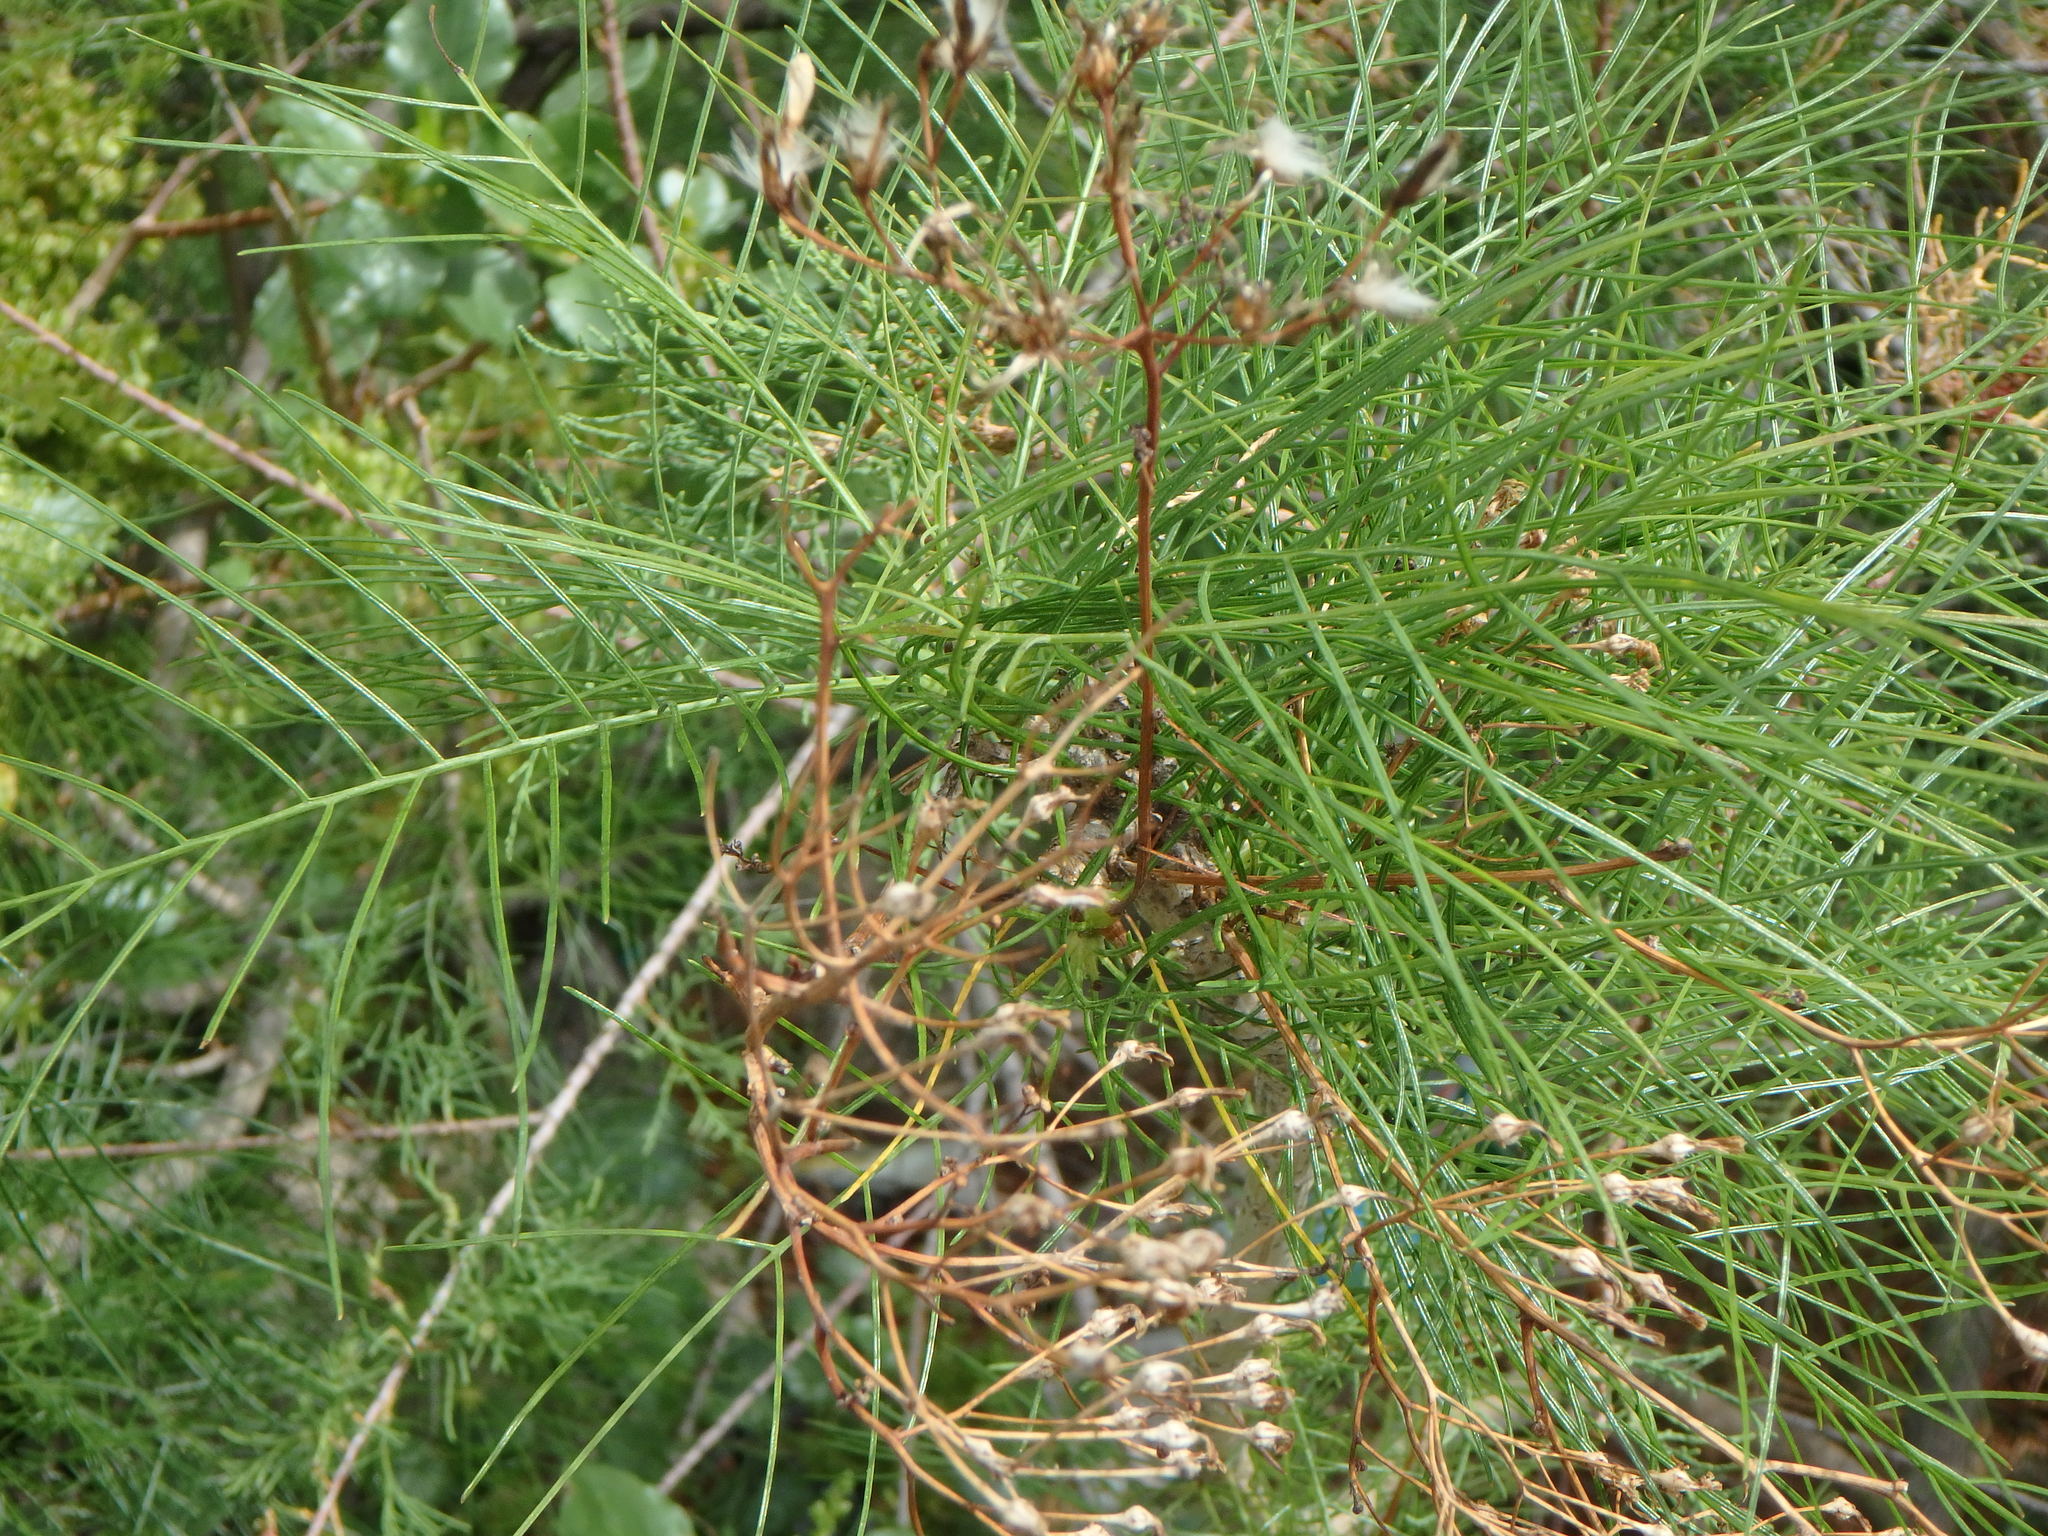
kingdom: Plantae
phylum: Tracheophyta
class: Magnoliopsida
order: Asterales
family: Asteraceae
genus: Sonchus
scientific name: Sonchus leptocephalus
